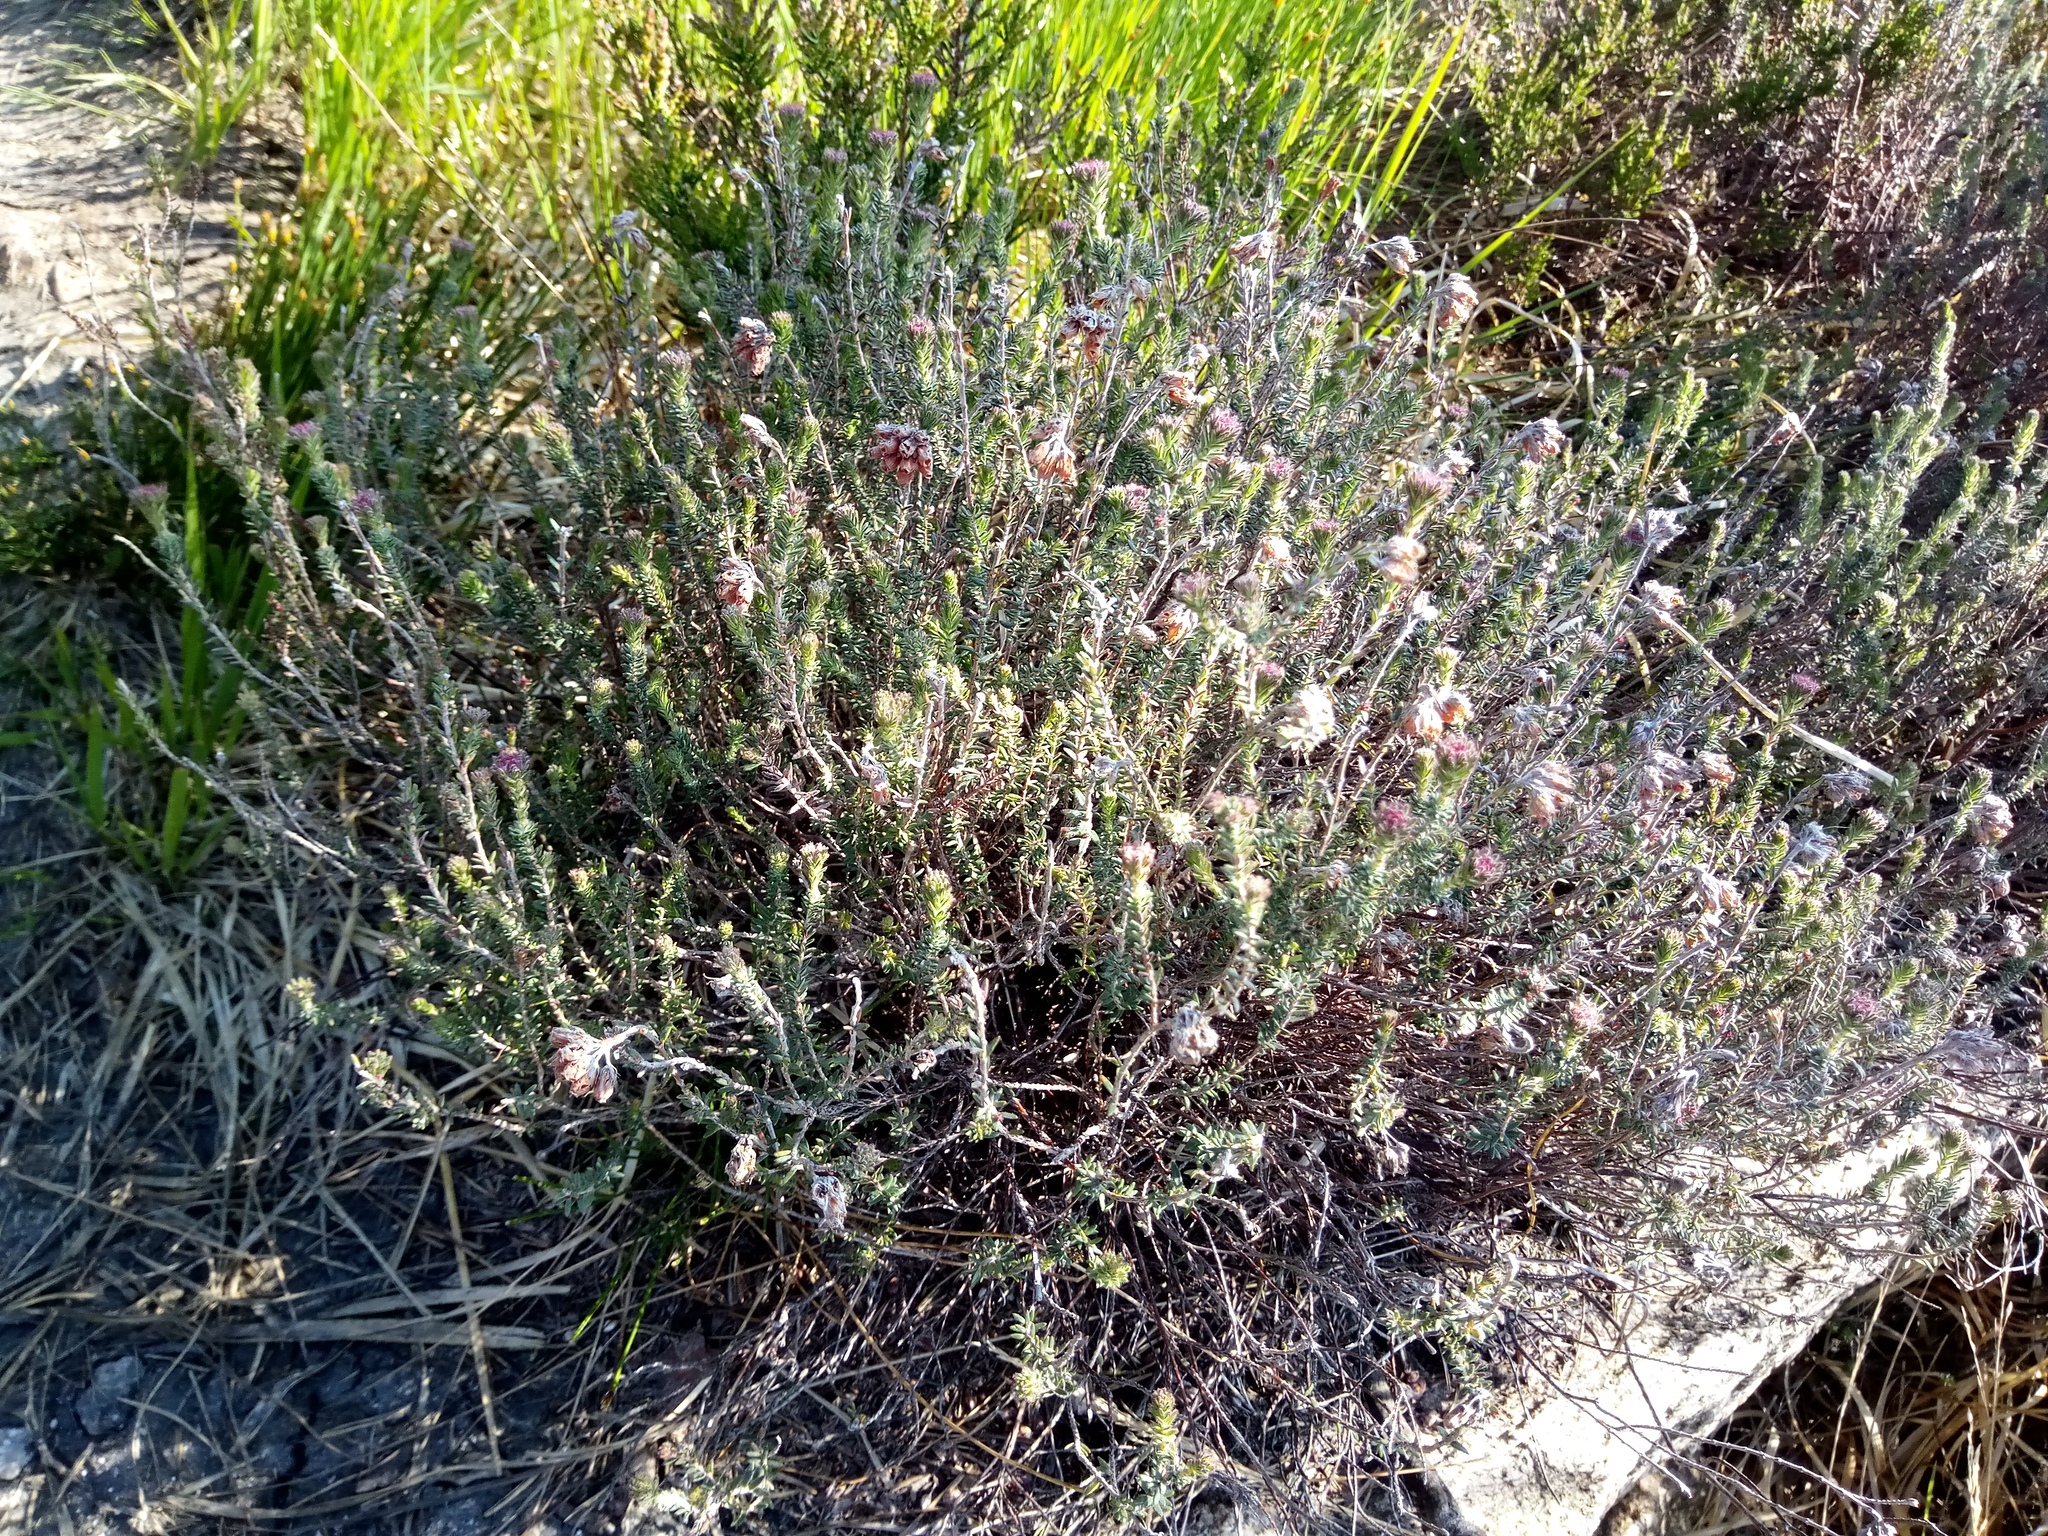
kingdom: Plantae
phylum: Tracheophyta
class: Magnoliopsida
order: Ericales
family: Ericaceae
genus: Erica
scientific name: Erica tetralix
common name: Cross-leaved heath
